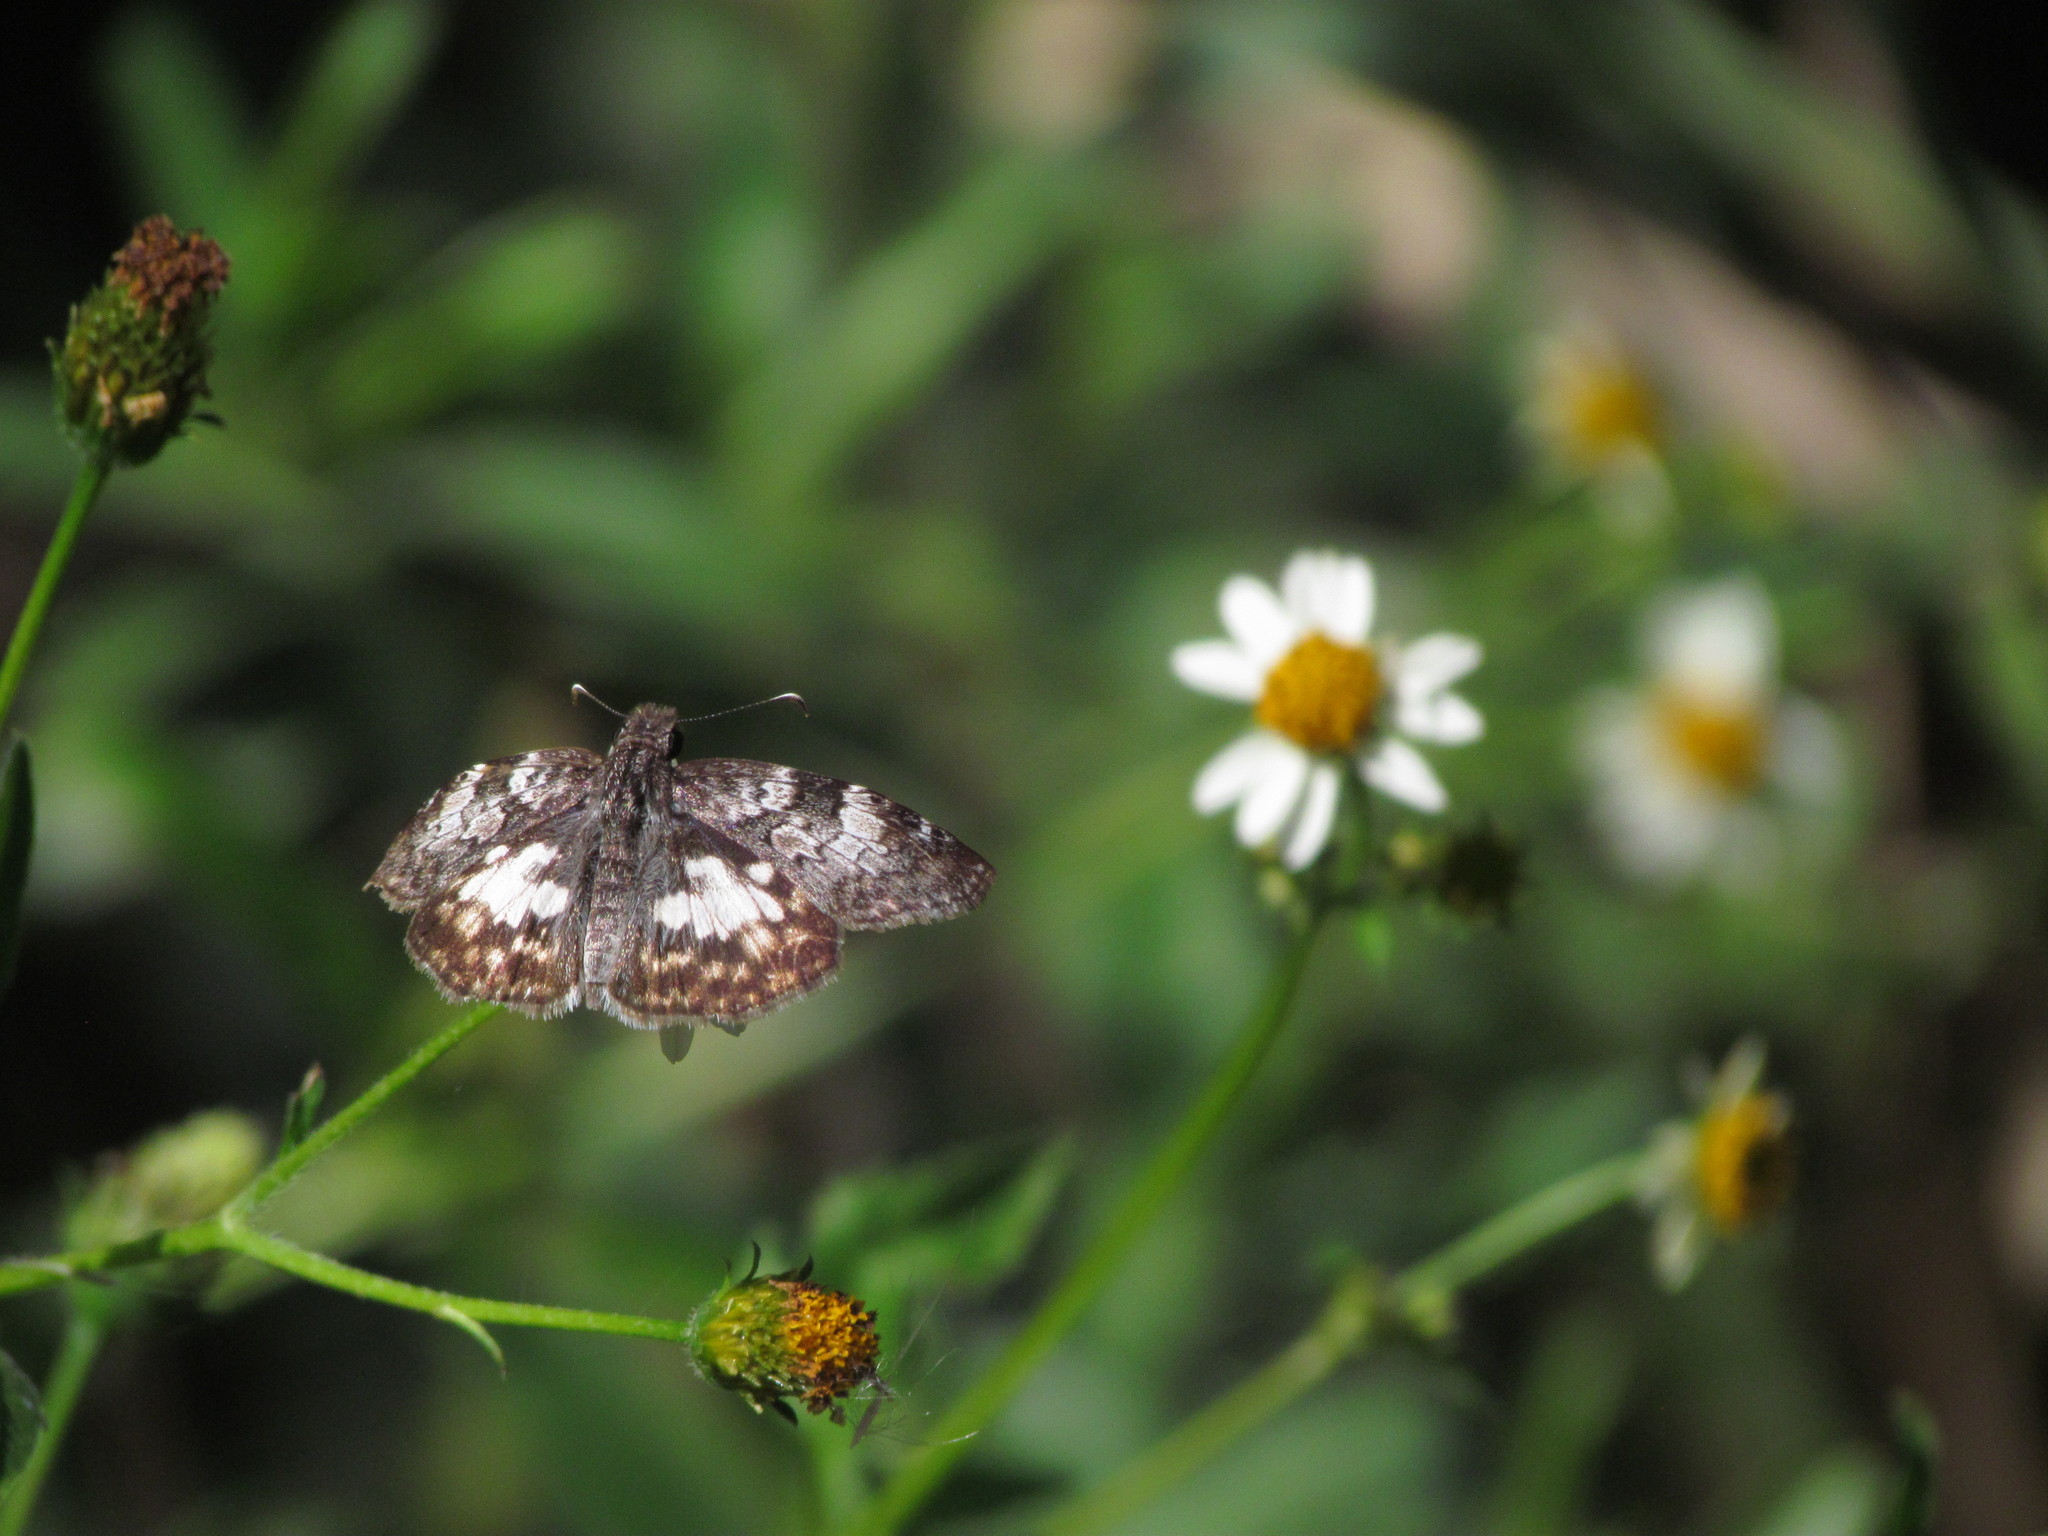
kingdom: Animalia
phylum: Arthropoda
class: Insecta
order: Lepidoptera
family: Hesperiidae
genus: Chiomara
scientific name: Chiomara asychis
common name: White-patterned skipper
